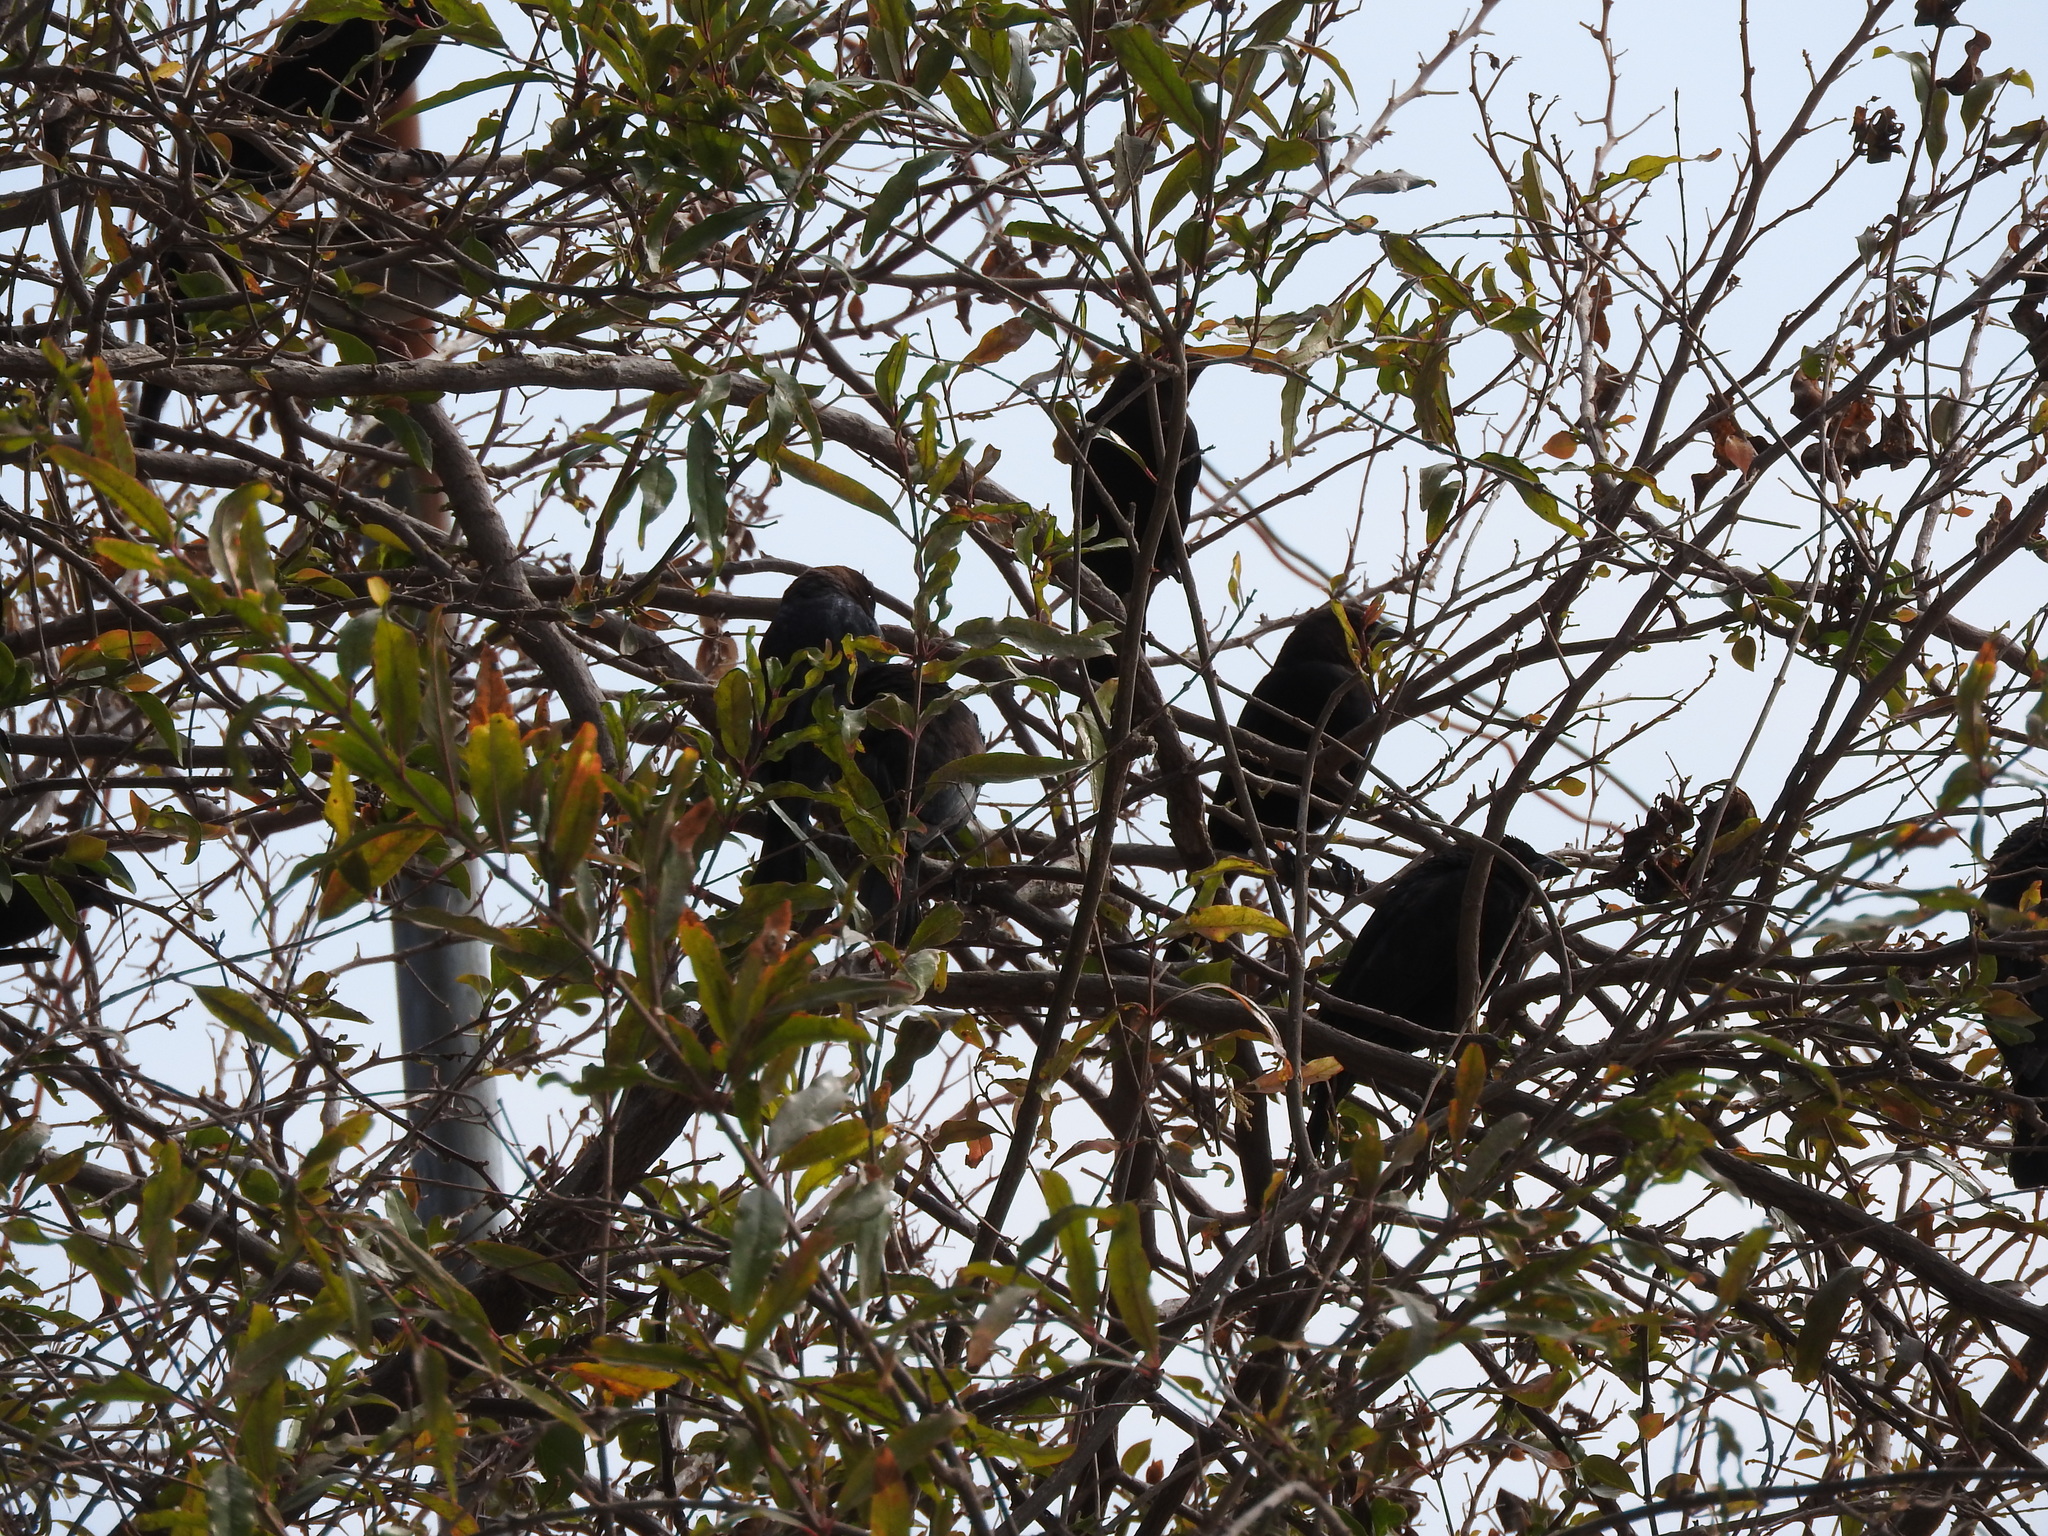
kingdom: Animalia
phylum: Chordata
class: Aves
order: Passeriformes
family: Icteridae
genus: Molothrus
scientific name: Molothrus ater
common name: Brown-headed cowbird
